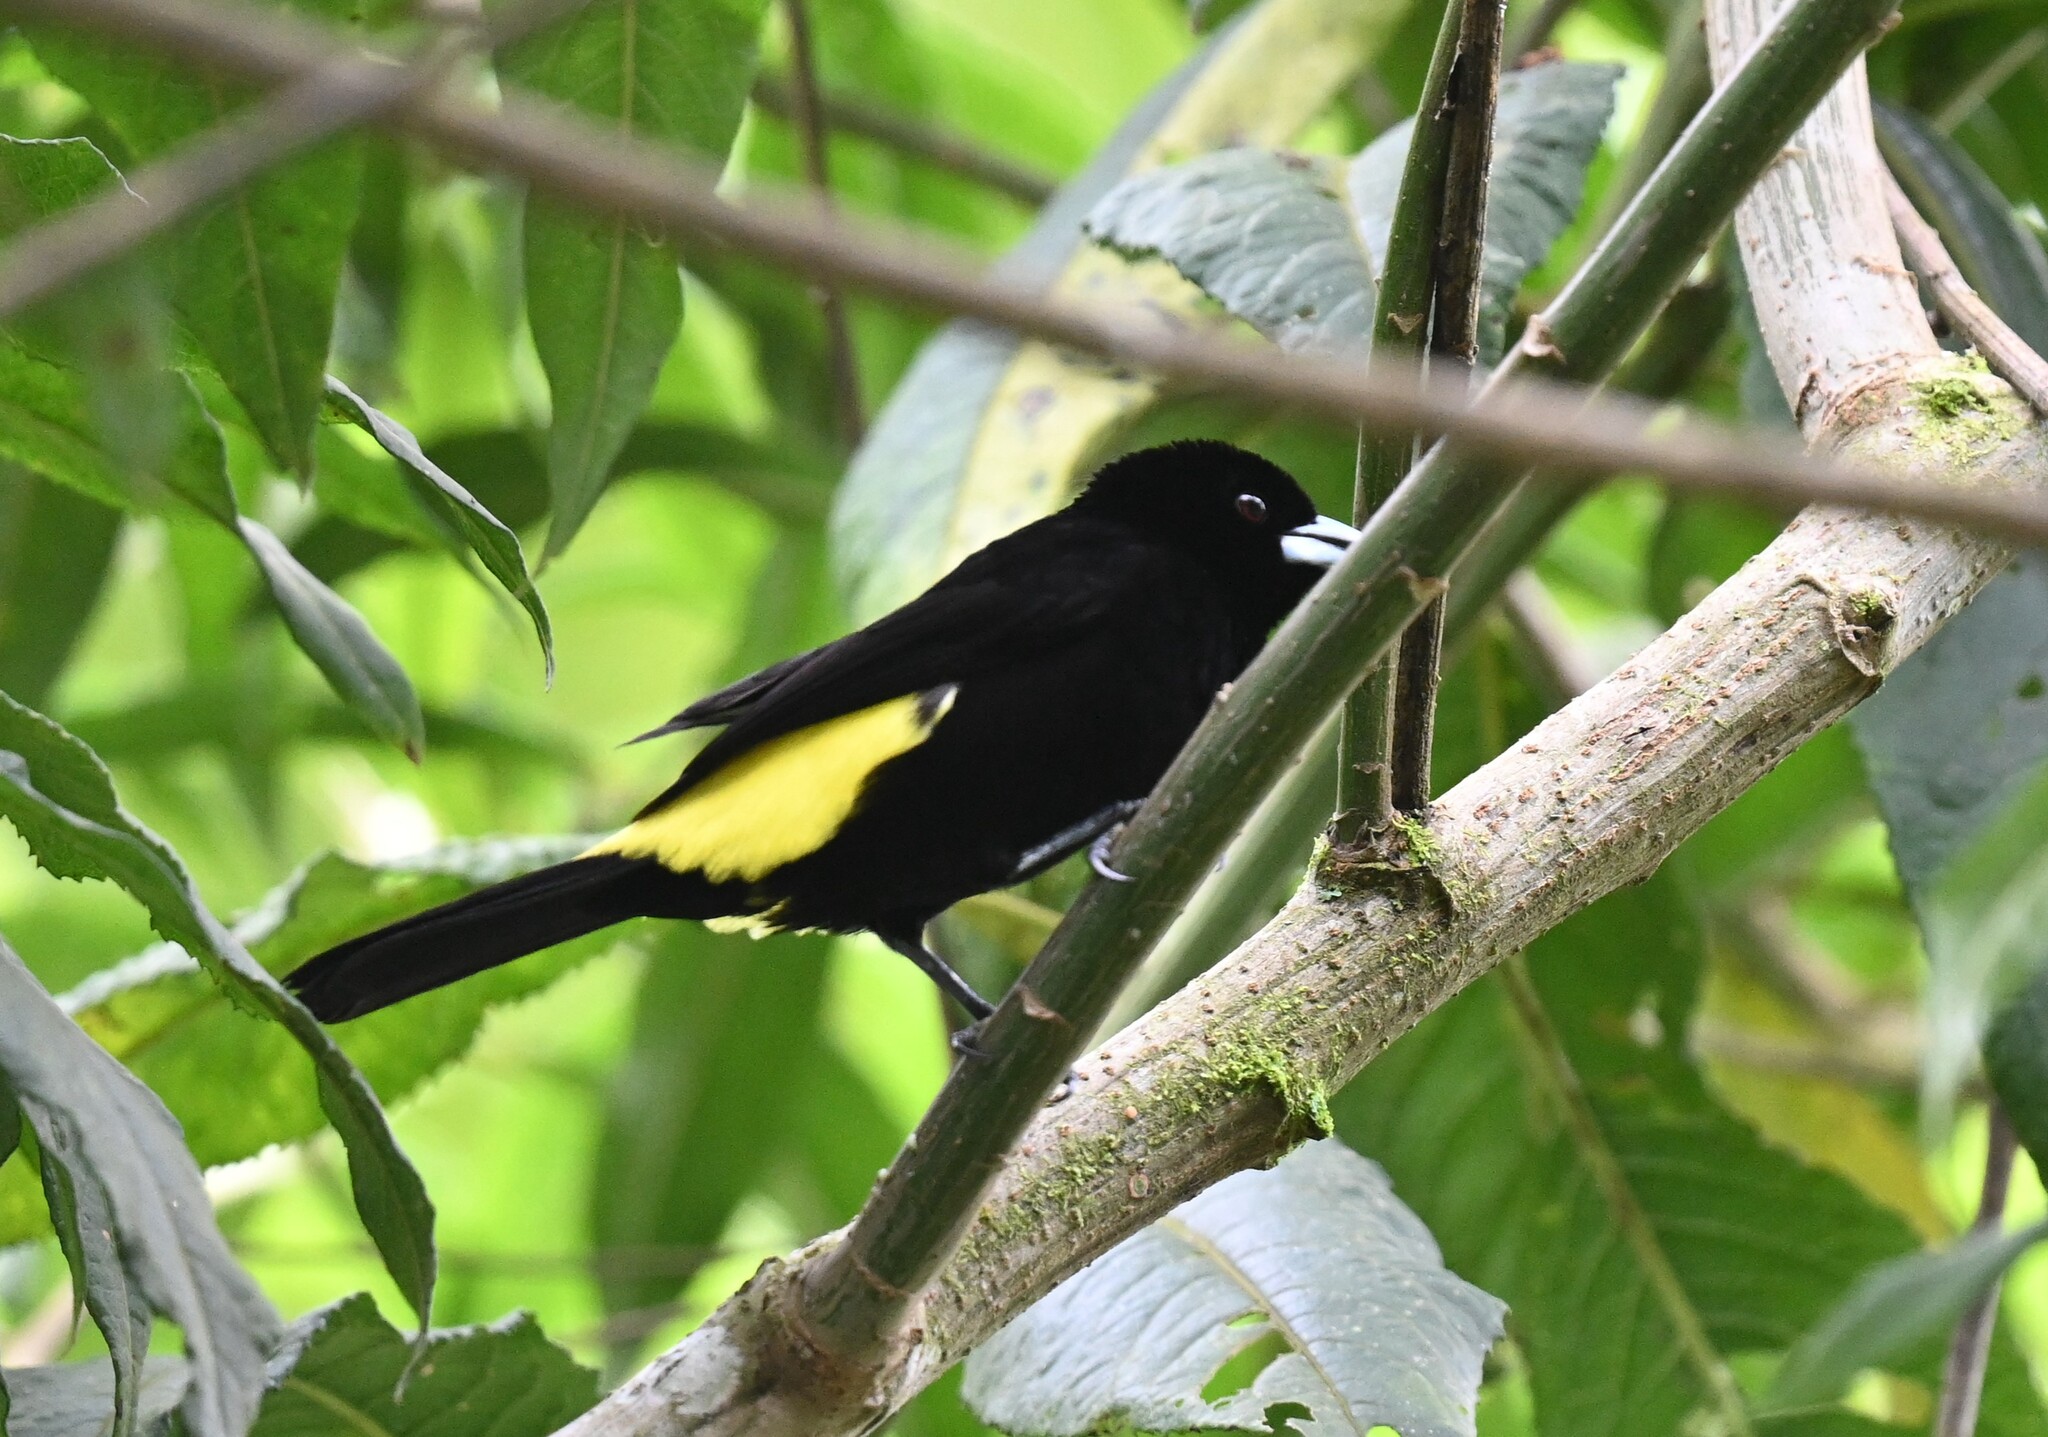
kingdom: Animalia
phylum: Chordata
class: Aves
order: Passeriformes
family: Thraupidae
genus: Ramphocelus
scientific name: Ramphocelus flammigerus
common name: Flame-rumped tanager
